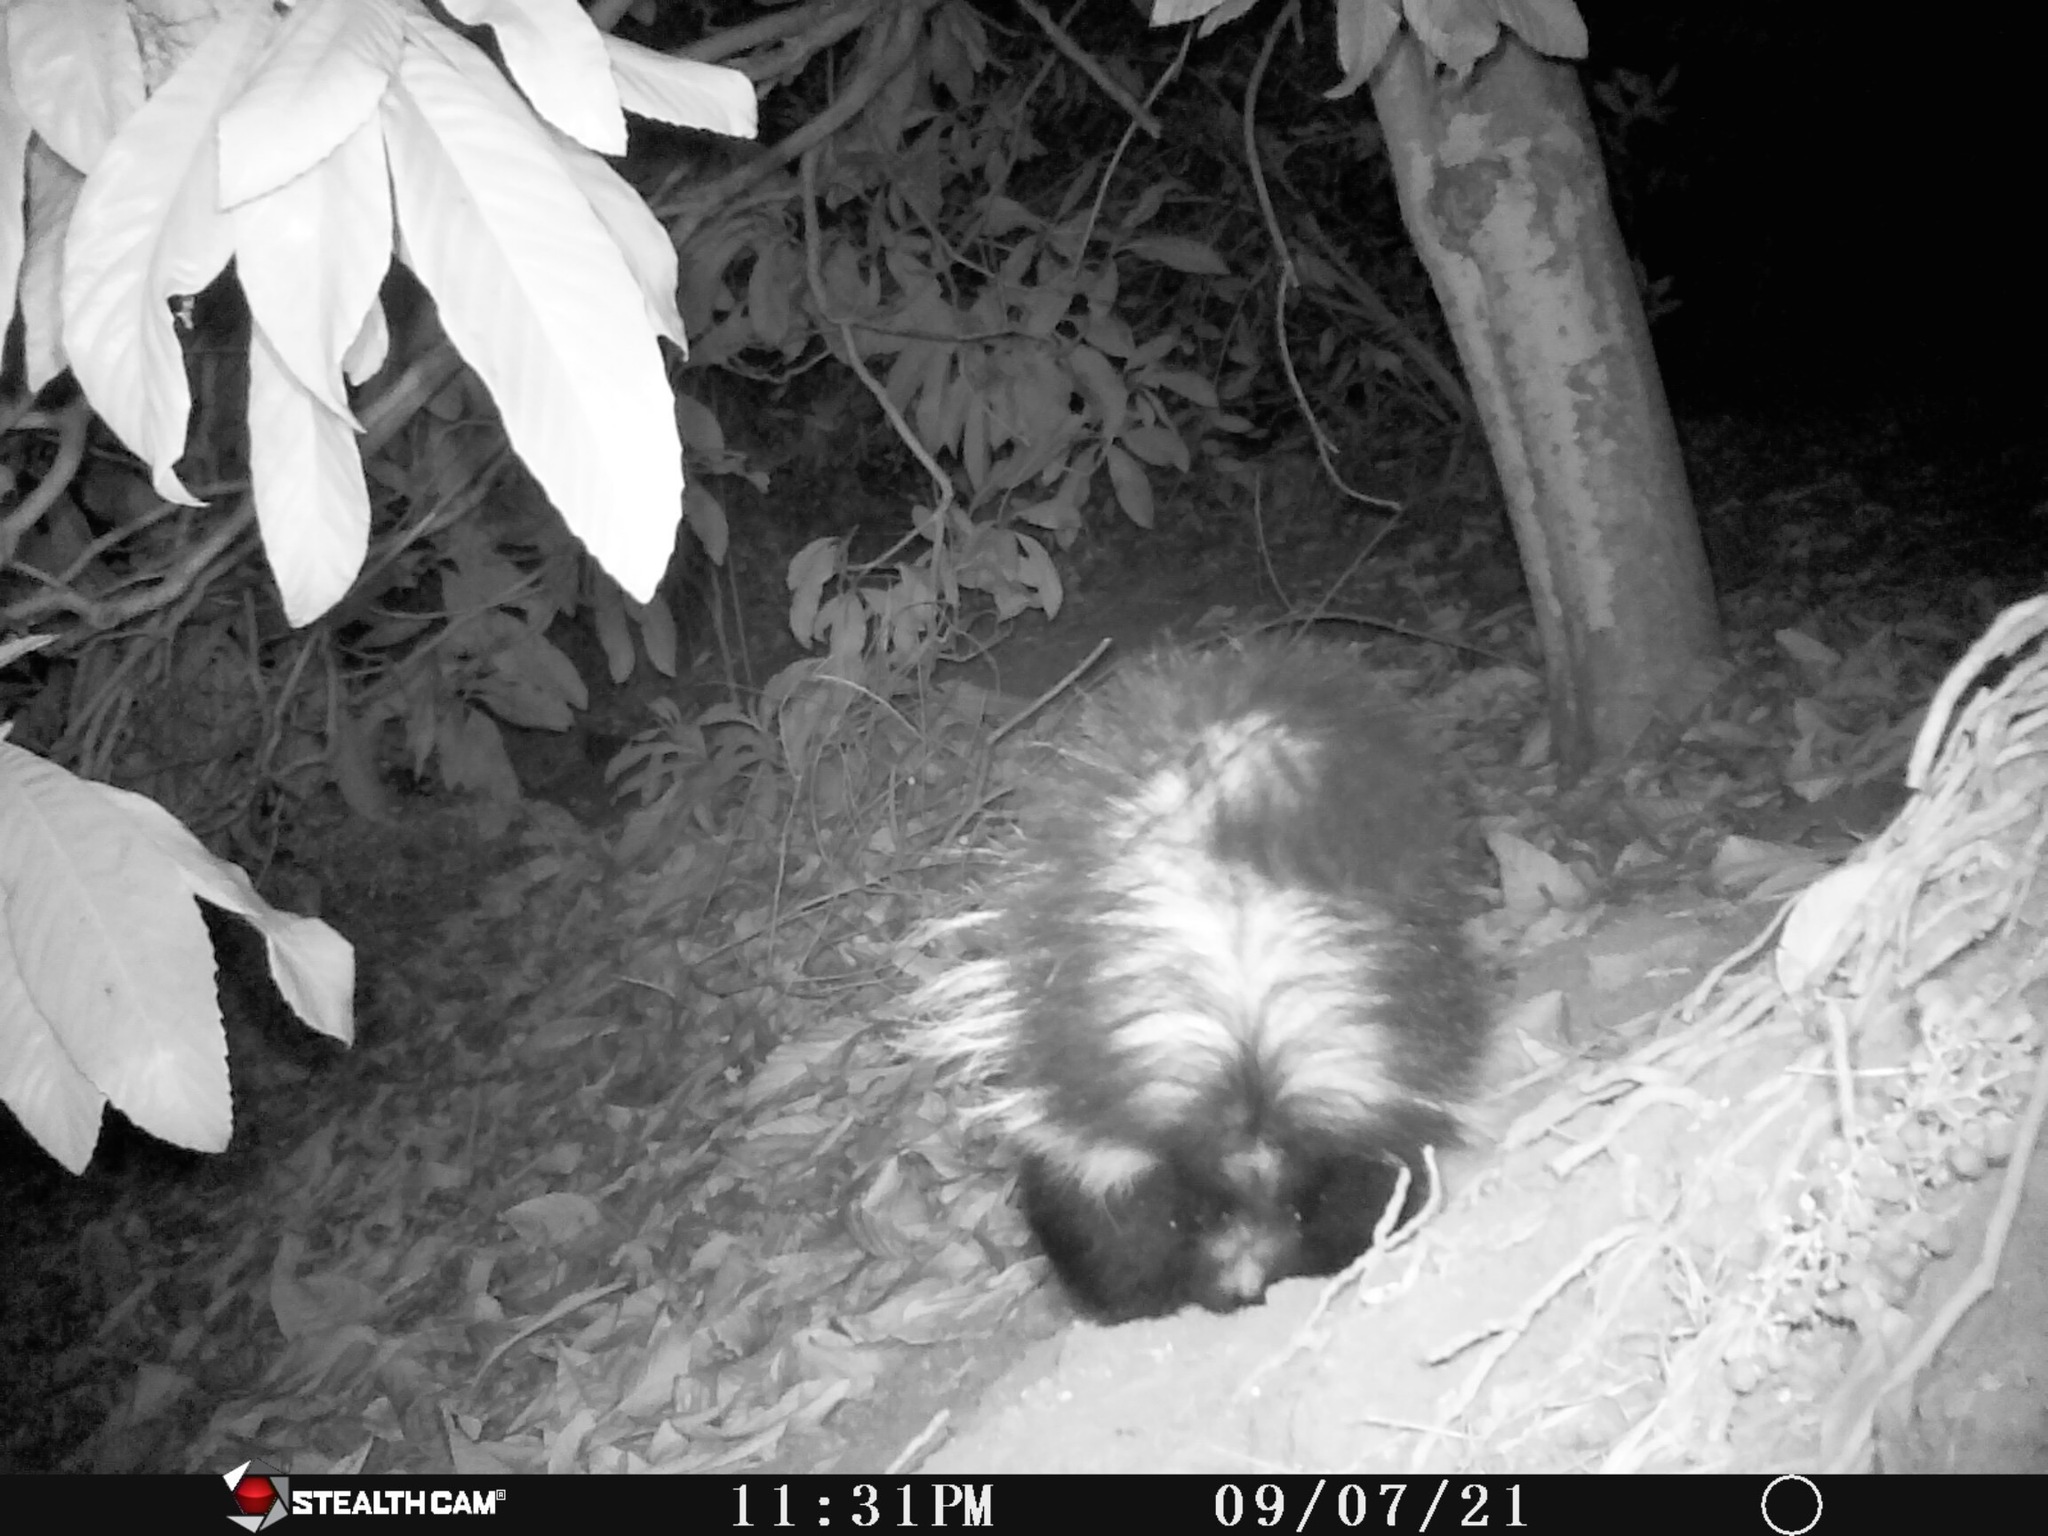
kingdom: Animalia
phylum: Chordata
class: Mammalia
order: Carnivora
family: Mephitidae
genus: Mephitis
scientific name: Mephitis mephitis
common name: Striped skunk
